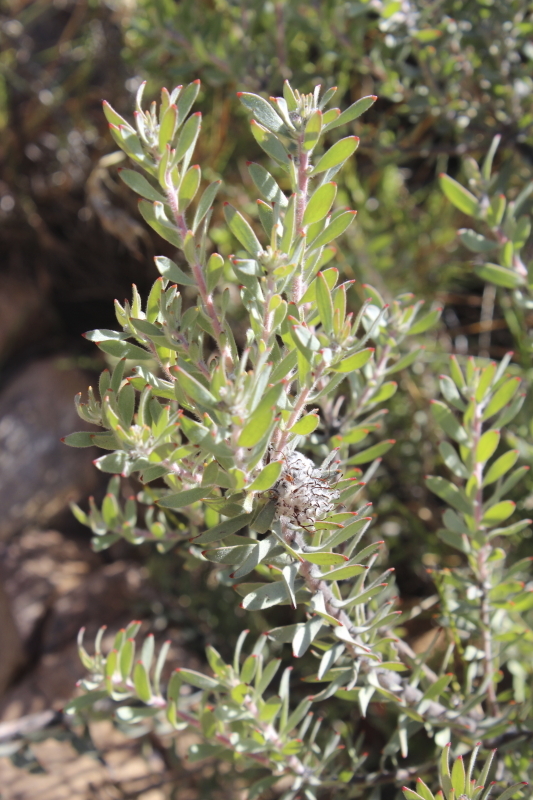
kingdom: Plantae
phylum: Tracheophyta
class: Magnoliopsida
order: Proteales
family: Proteaceae
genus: Leucospermum
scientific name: Leucospermum wittebergense
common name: Swartberg pincushion
